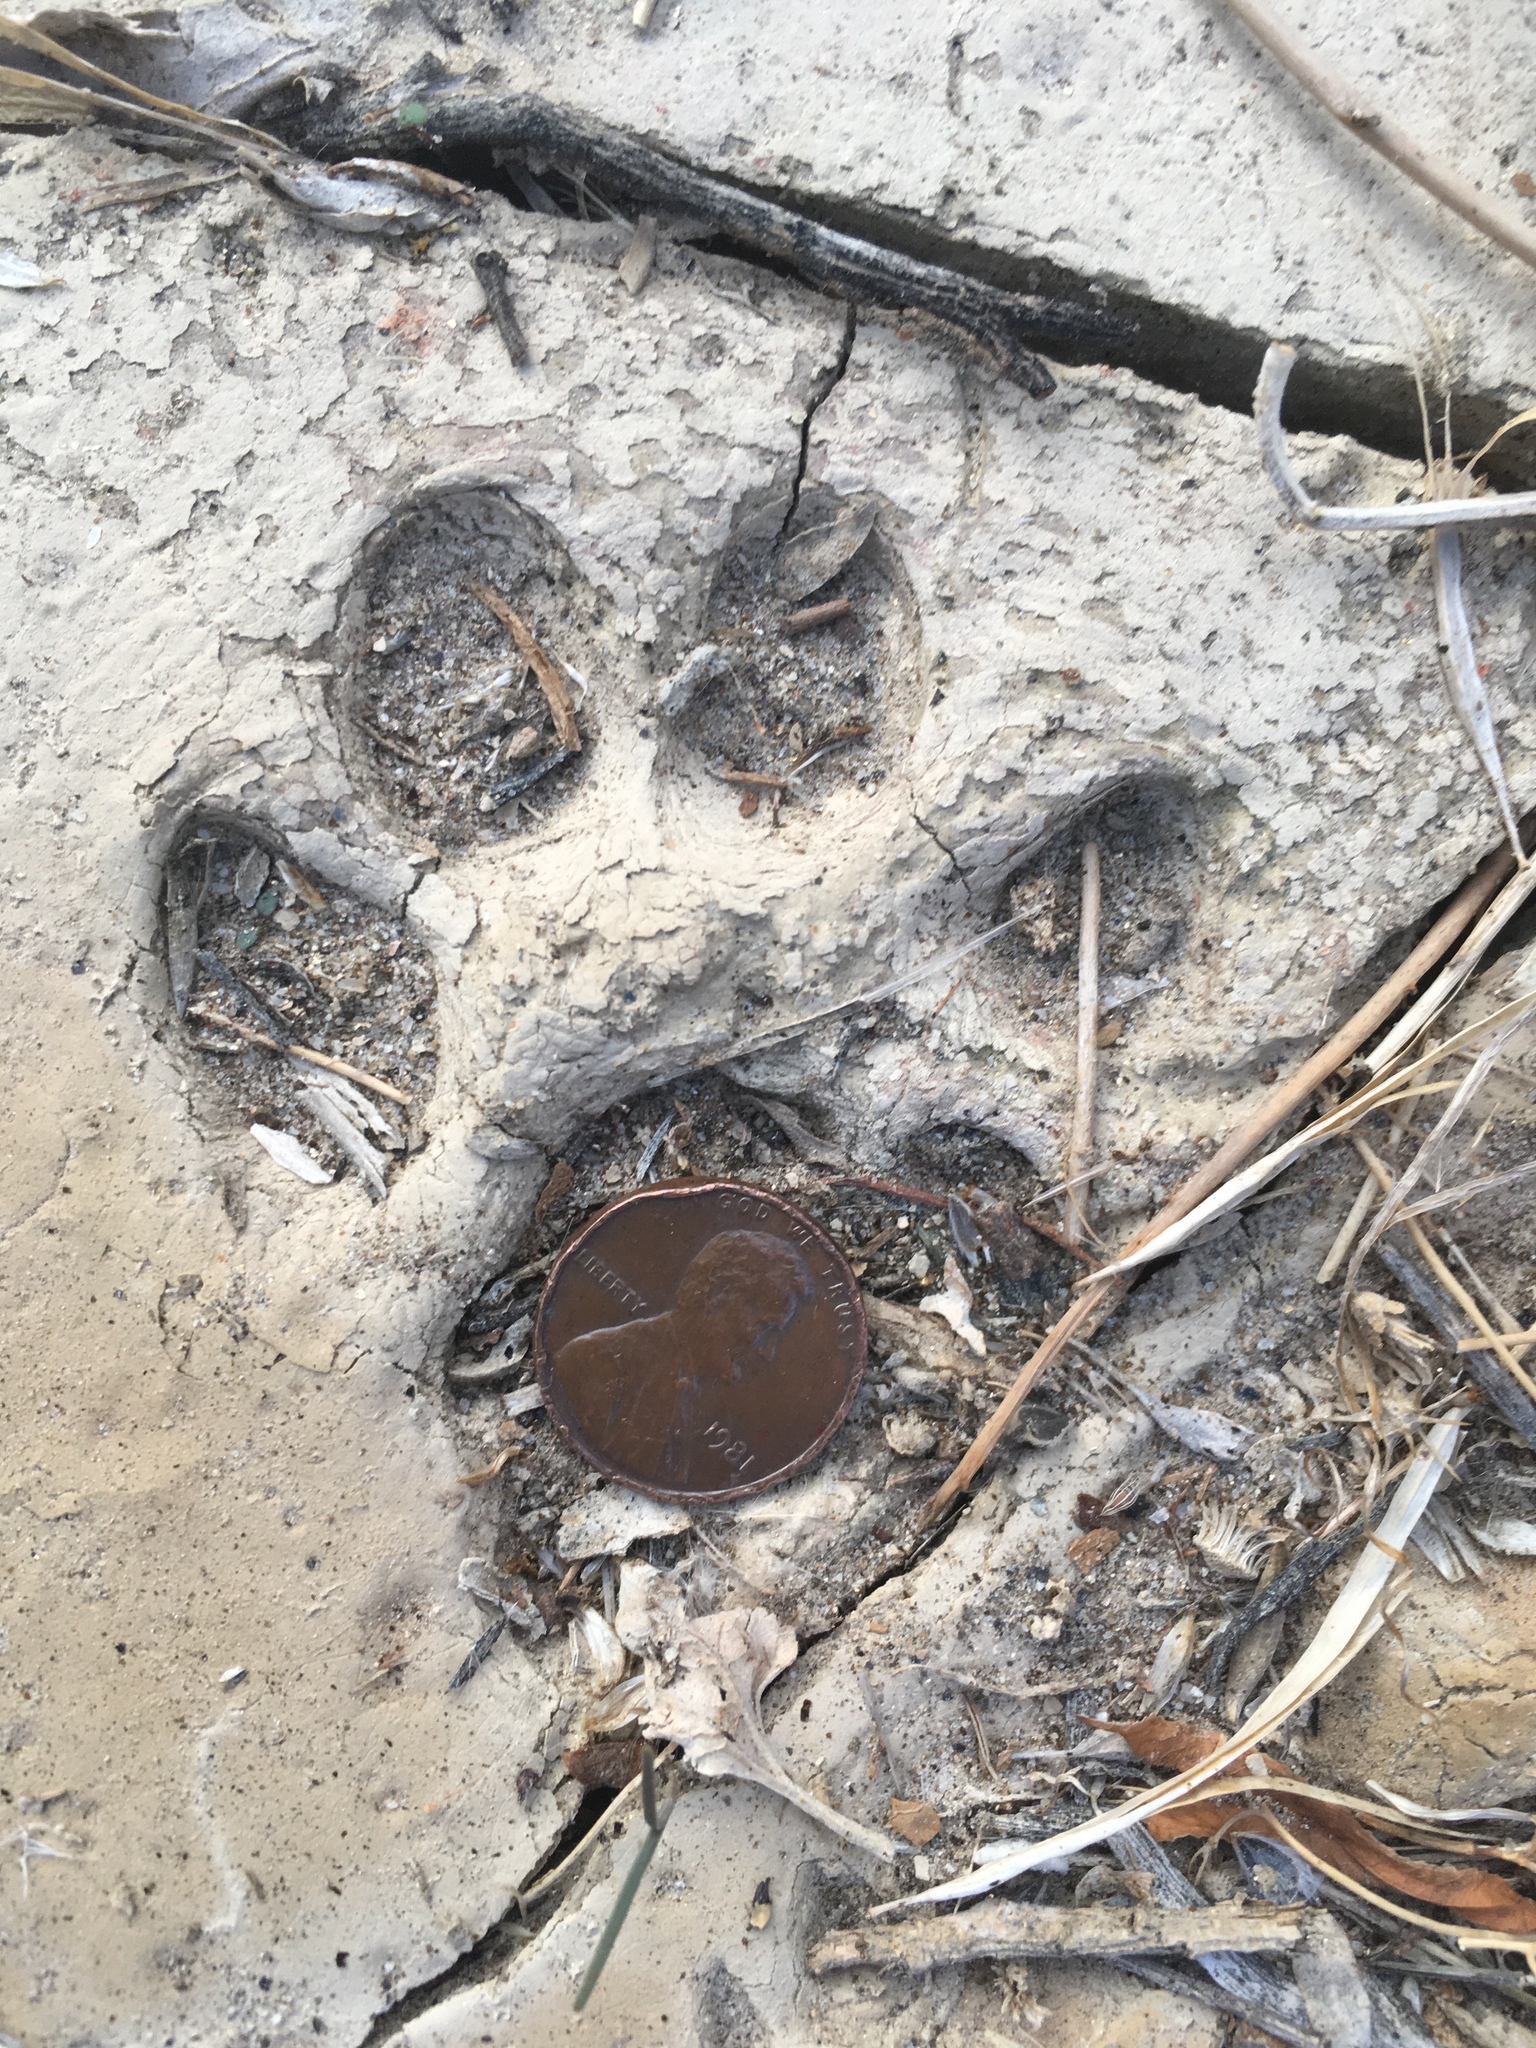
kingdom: Animalia
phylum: Chordata
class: Mammalia
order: Carnivora
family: Felidae
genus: Lynx
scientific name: Lynx rufus
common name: Bobcat
